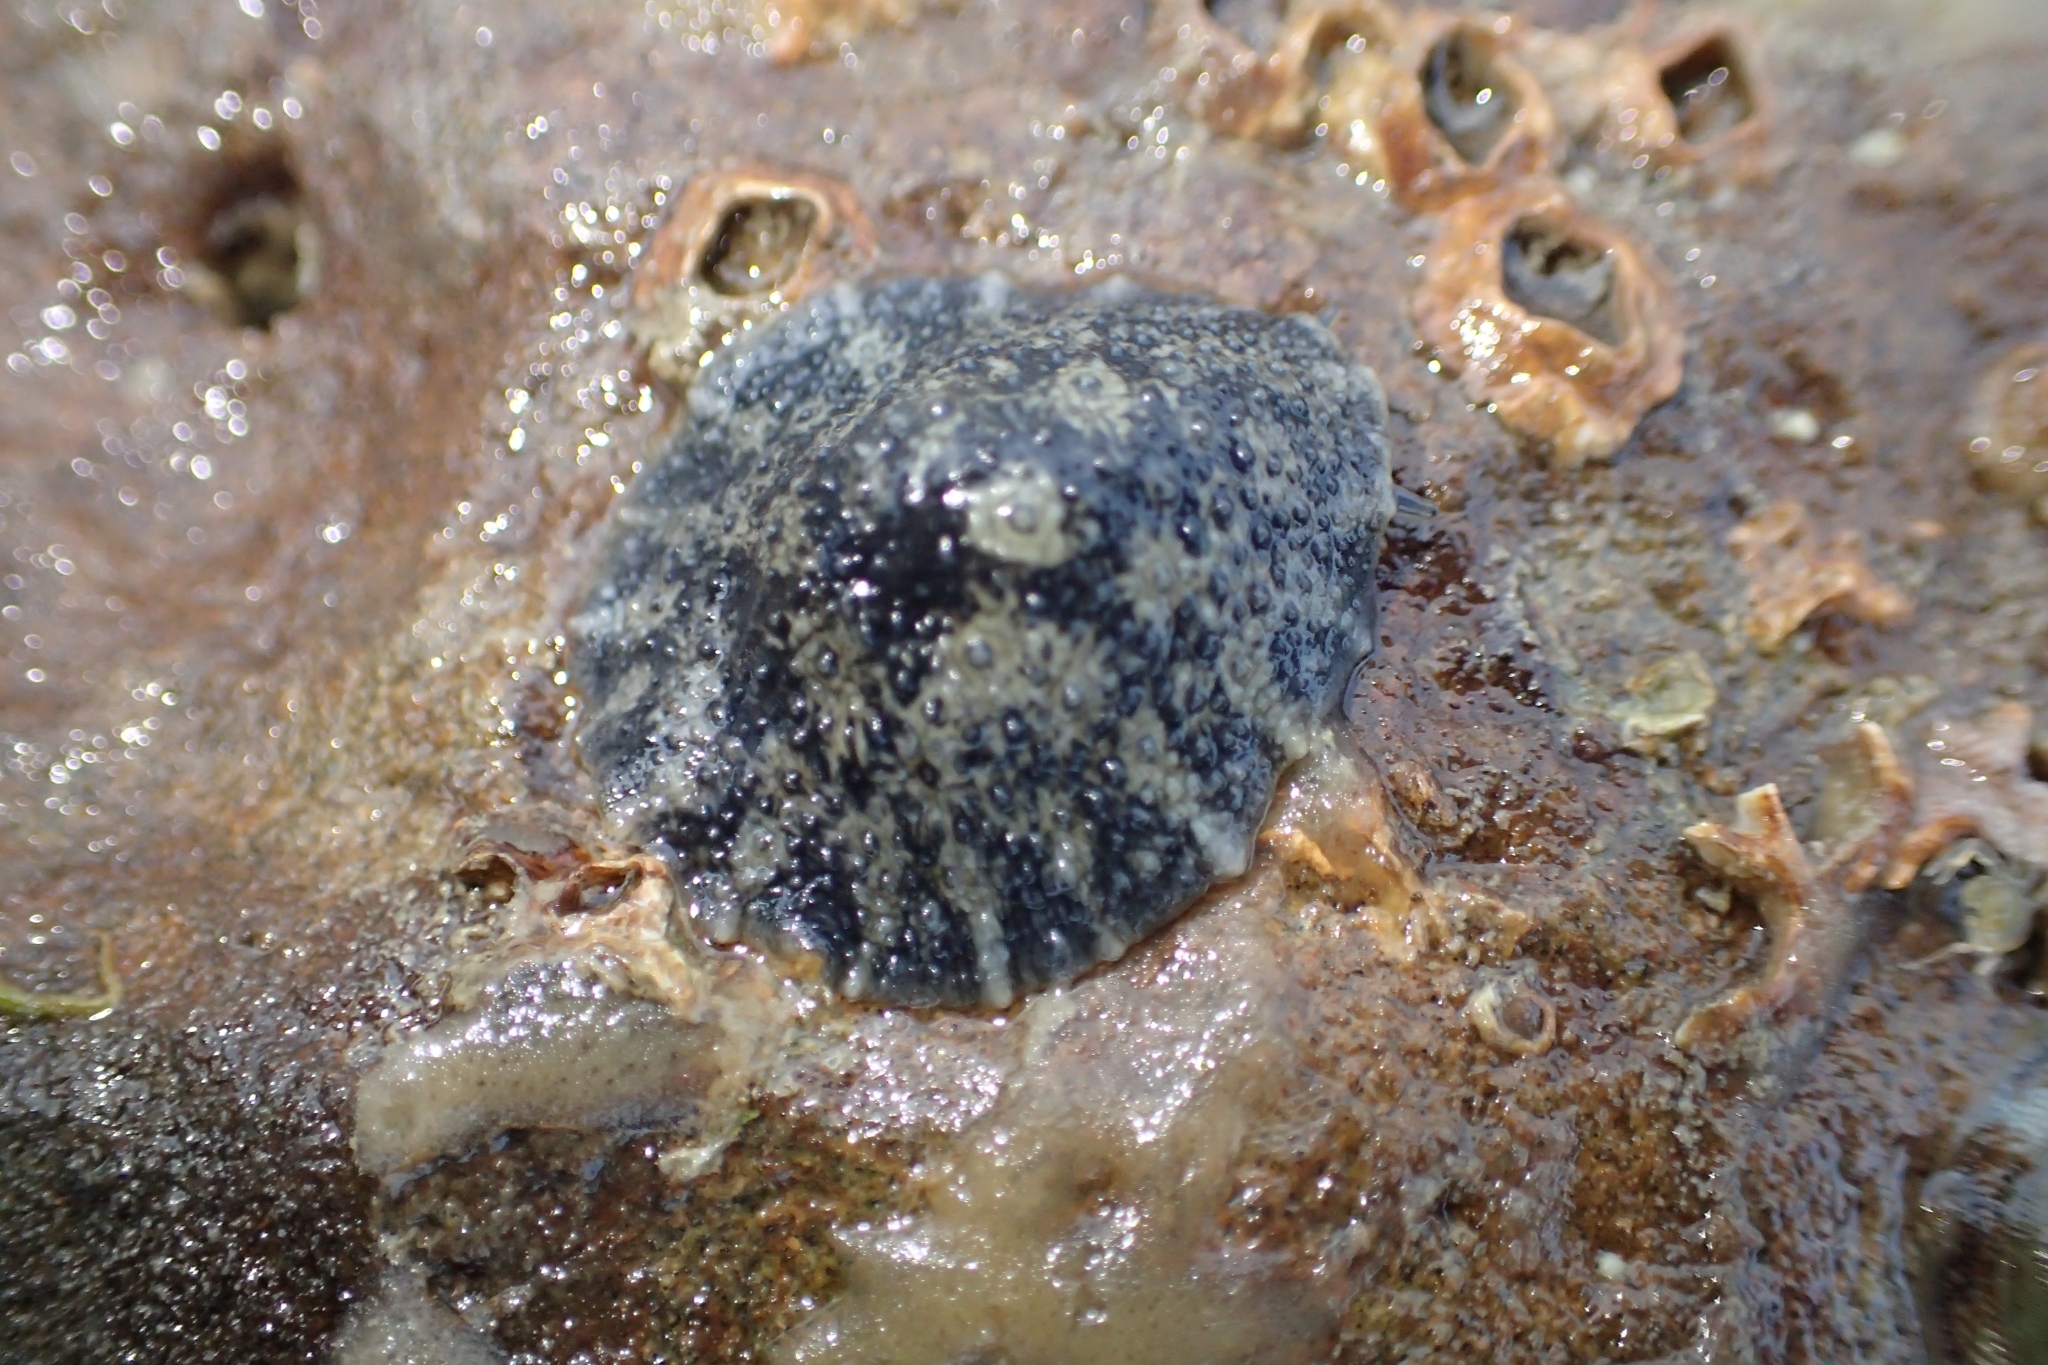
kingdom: Animalia
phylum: Mollusca
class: Gastropoda
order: Systellommatophora
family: Onchidiidae
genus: Onchidella
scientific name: Onchidella nigricans
